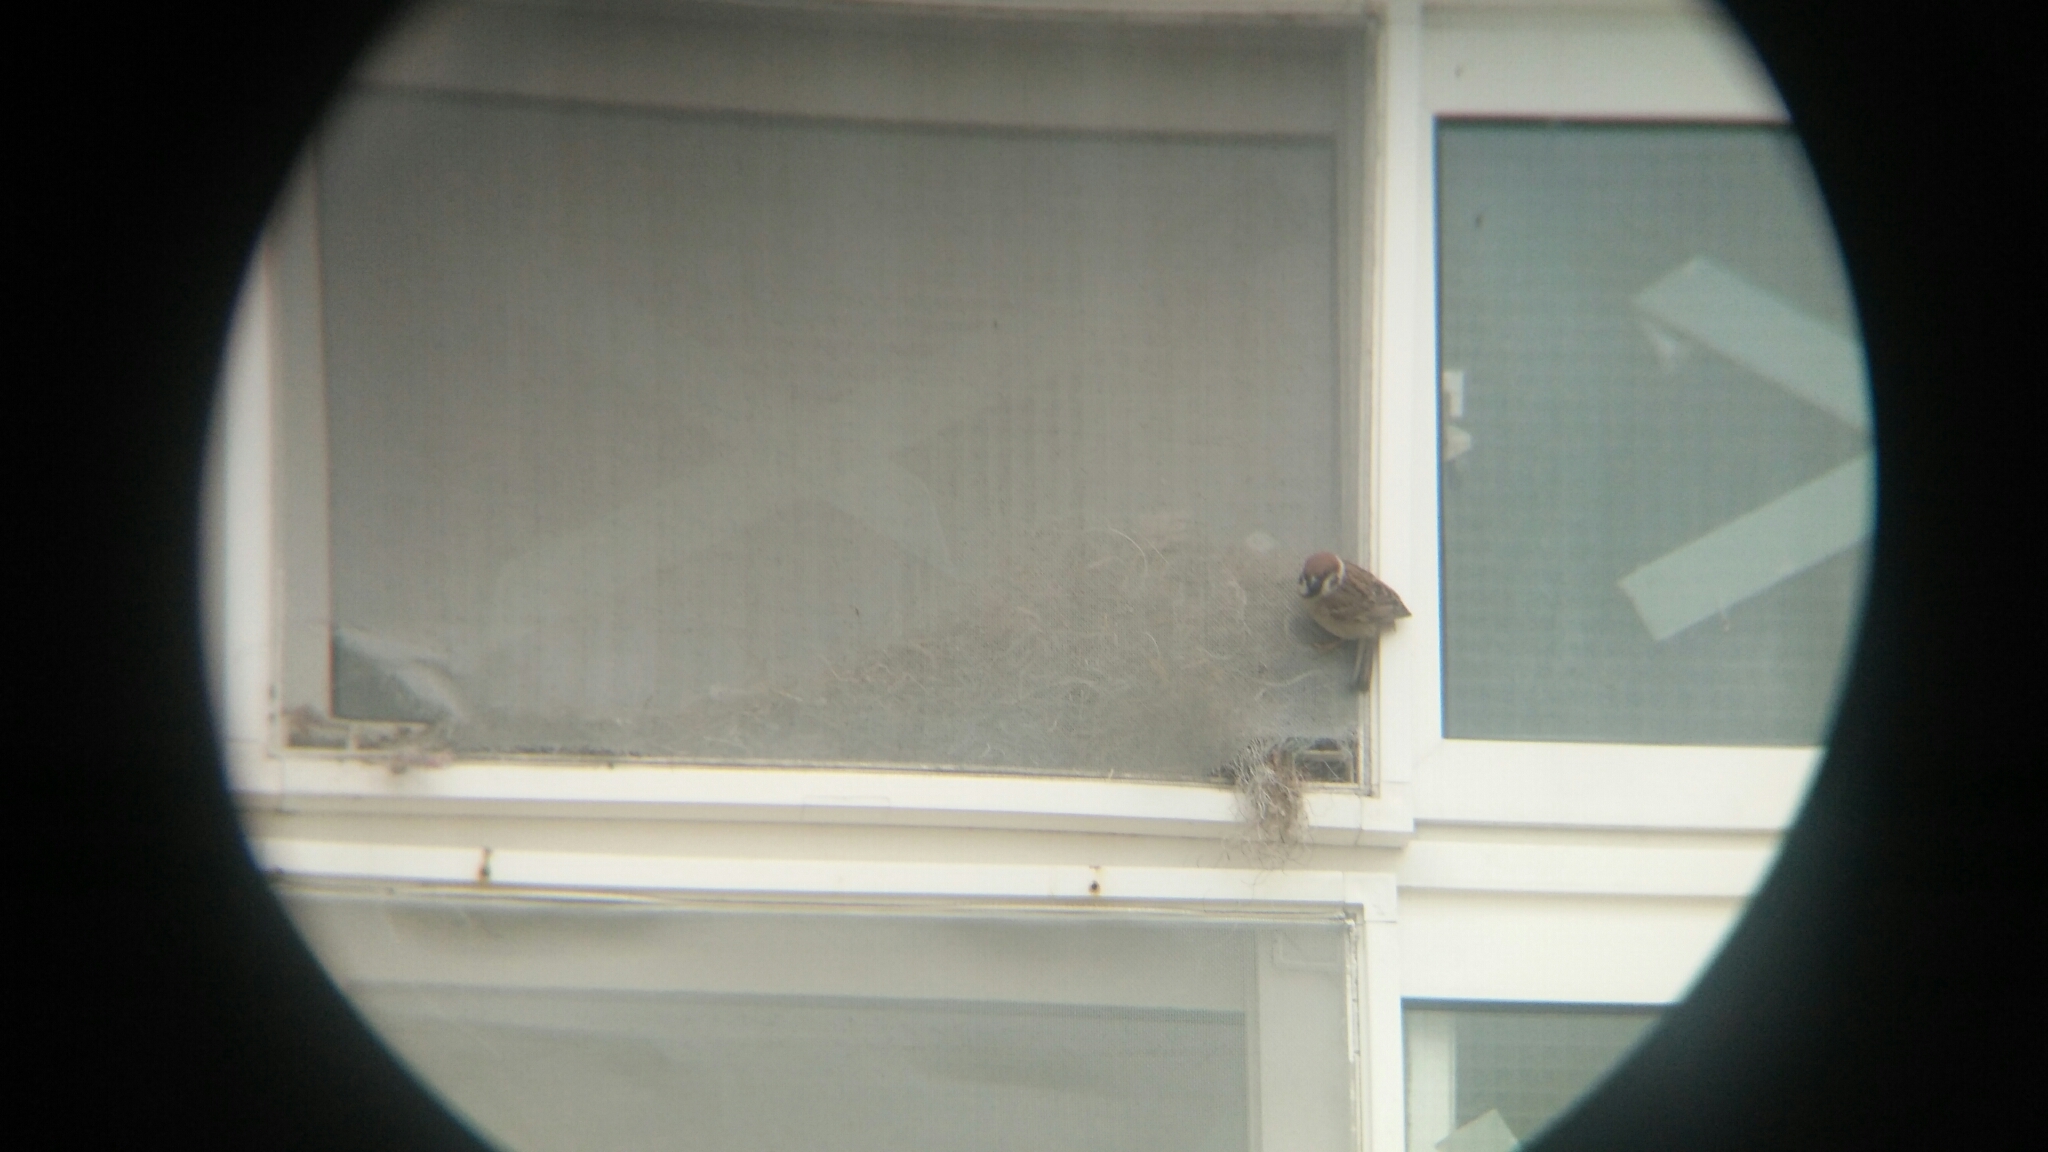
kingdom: Animalia
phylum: Chordata
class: Aves
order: Passeriformes
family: Passeridae
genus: Passer
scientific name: Passer montanus
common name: Eurasian tree sparrow
